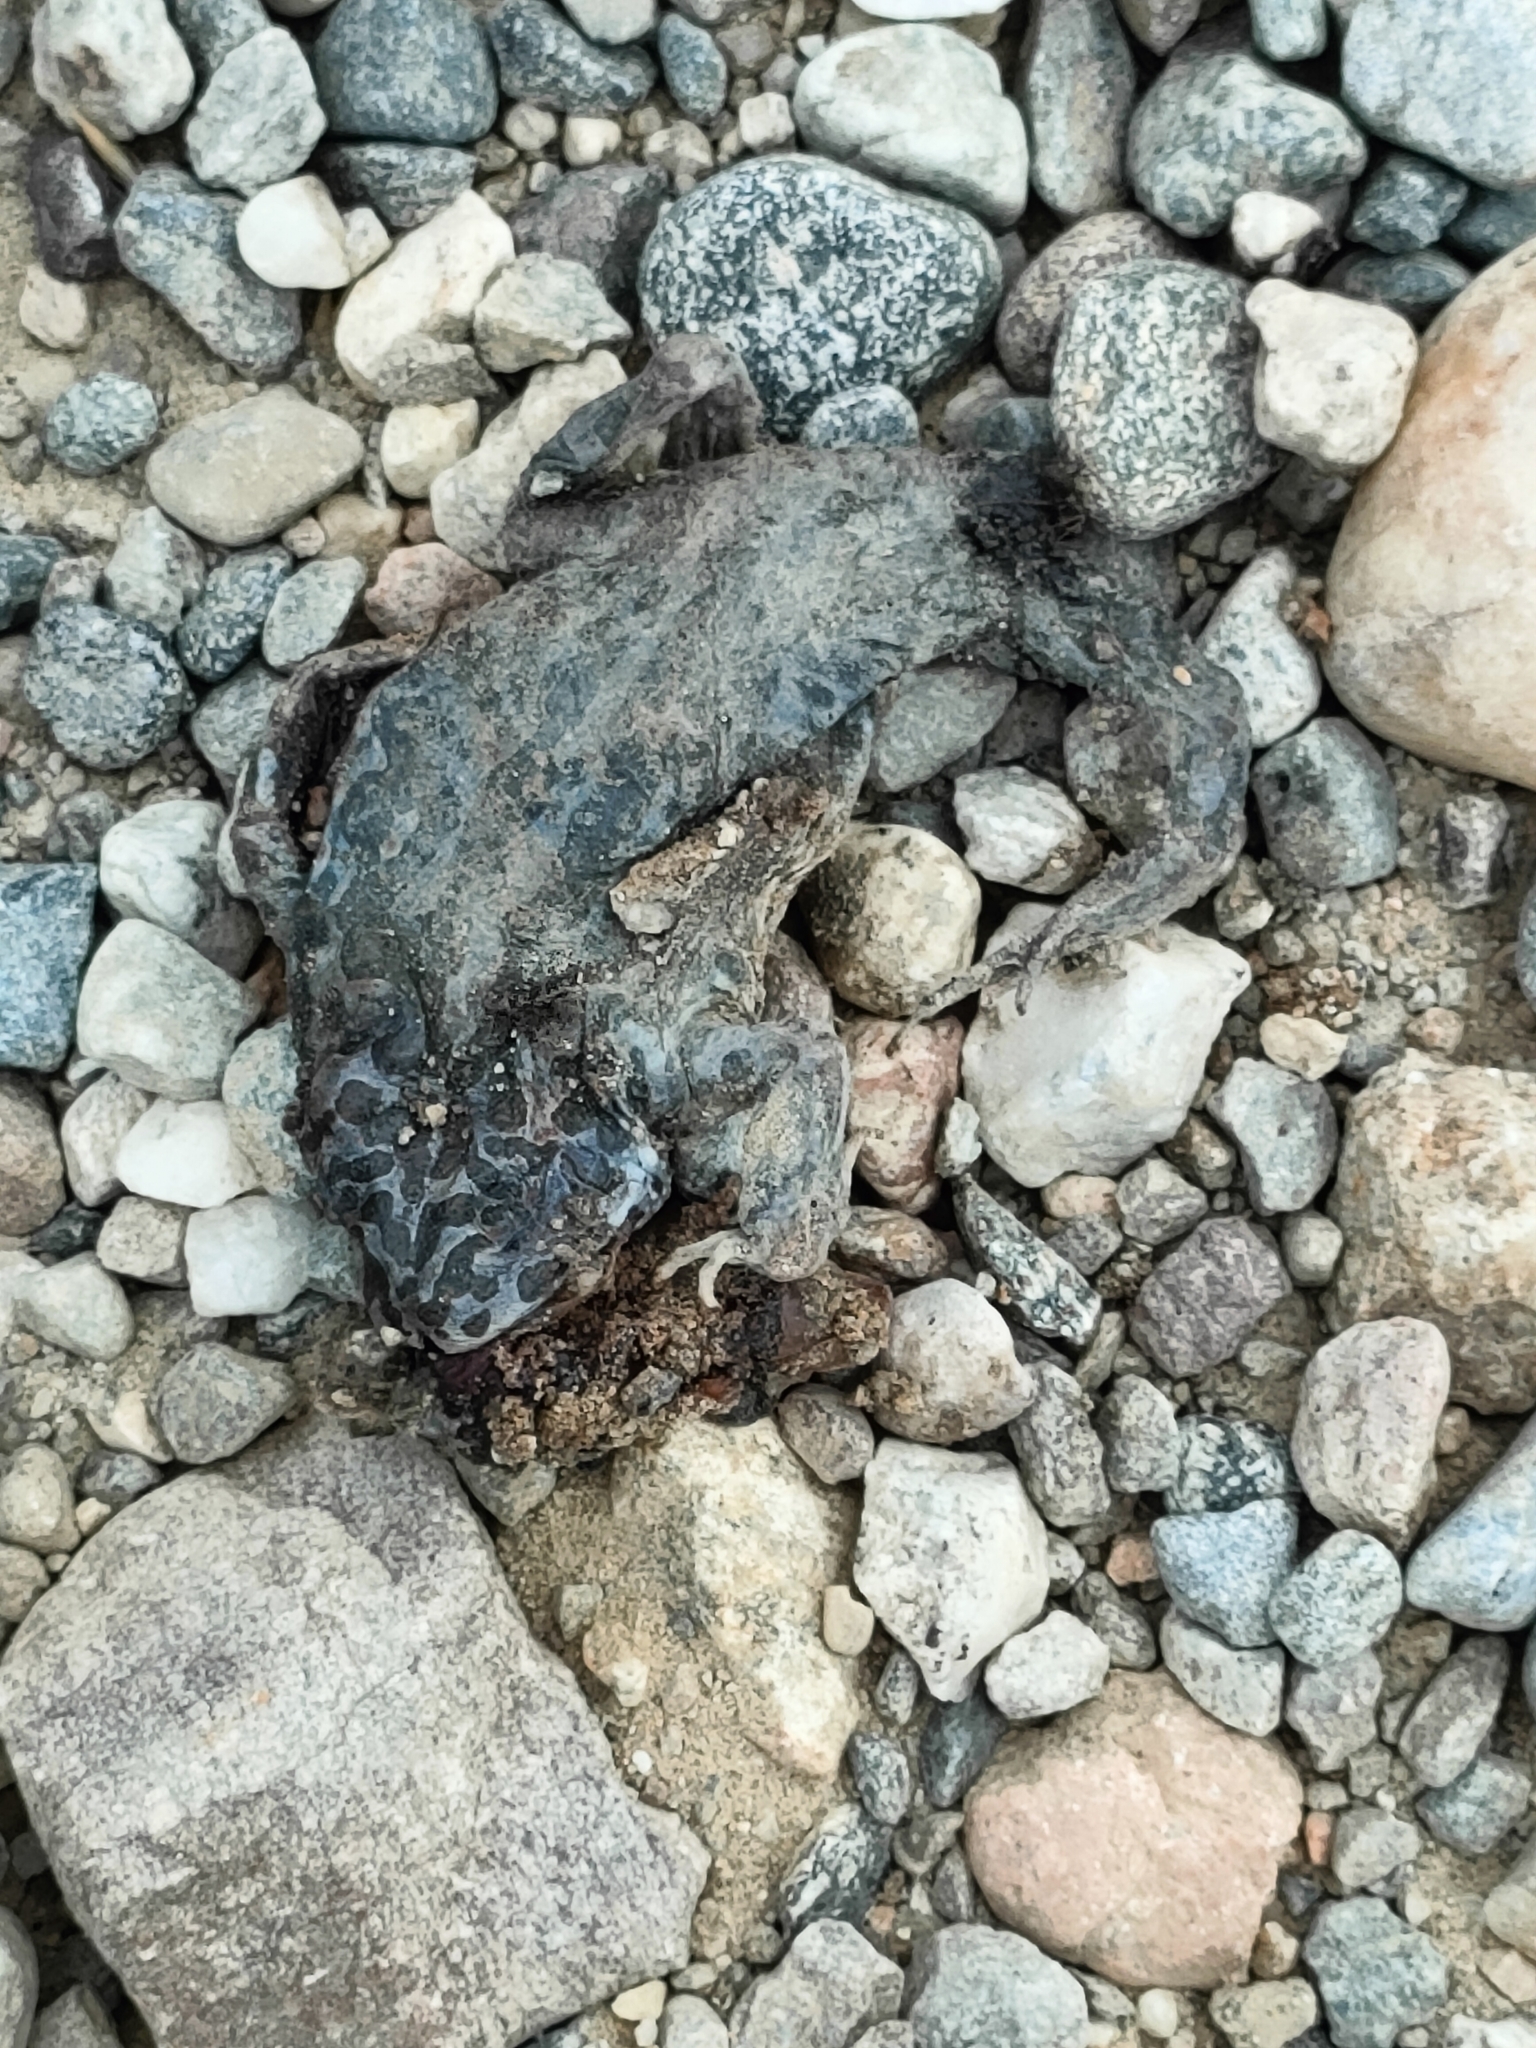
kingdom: Animalia
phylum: Chordata
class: Amphibia
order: Anura
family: Bufonidae
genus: Bufotes
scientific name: Bufotes viridis
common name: European green toad
